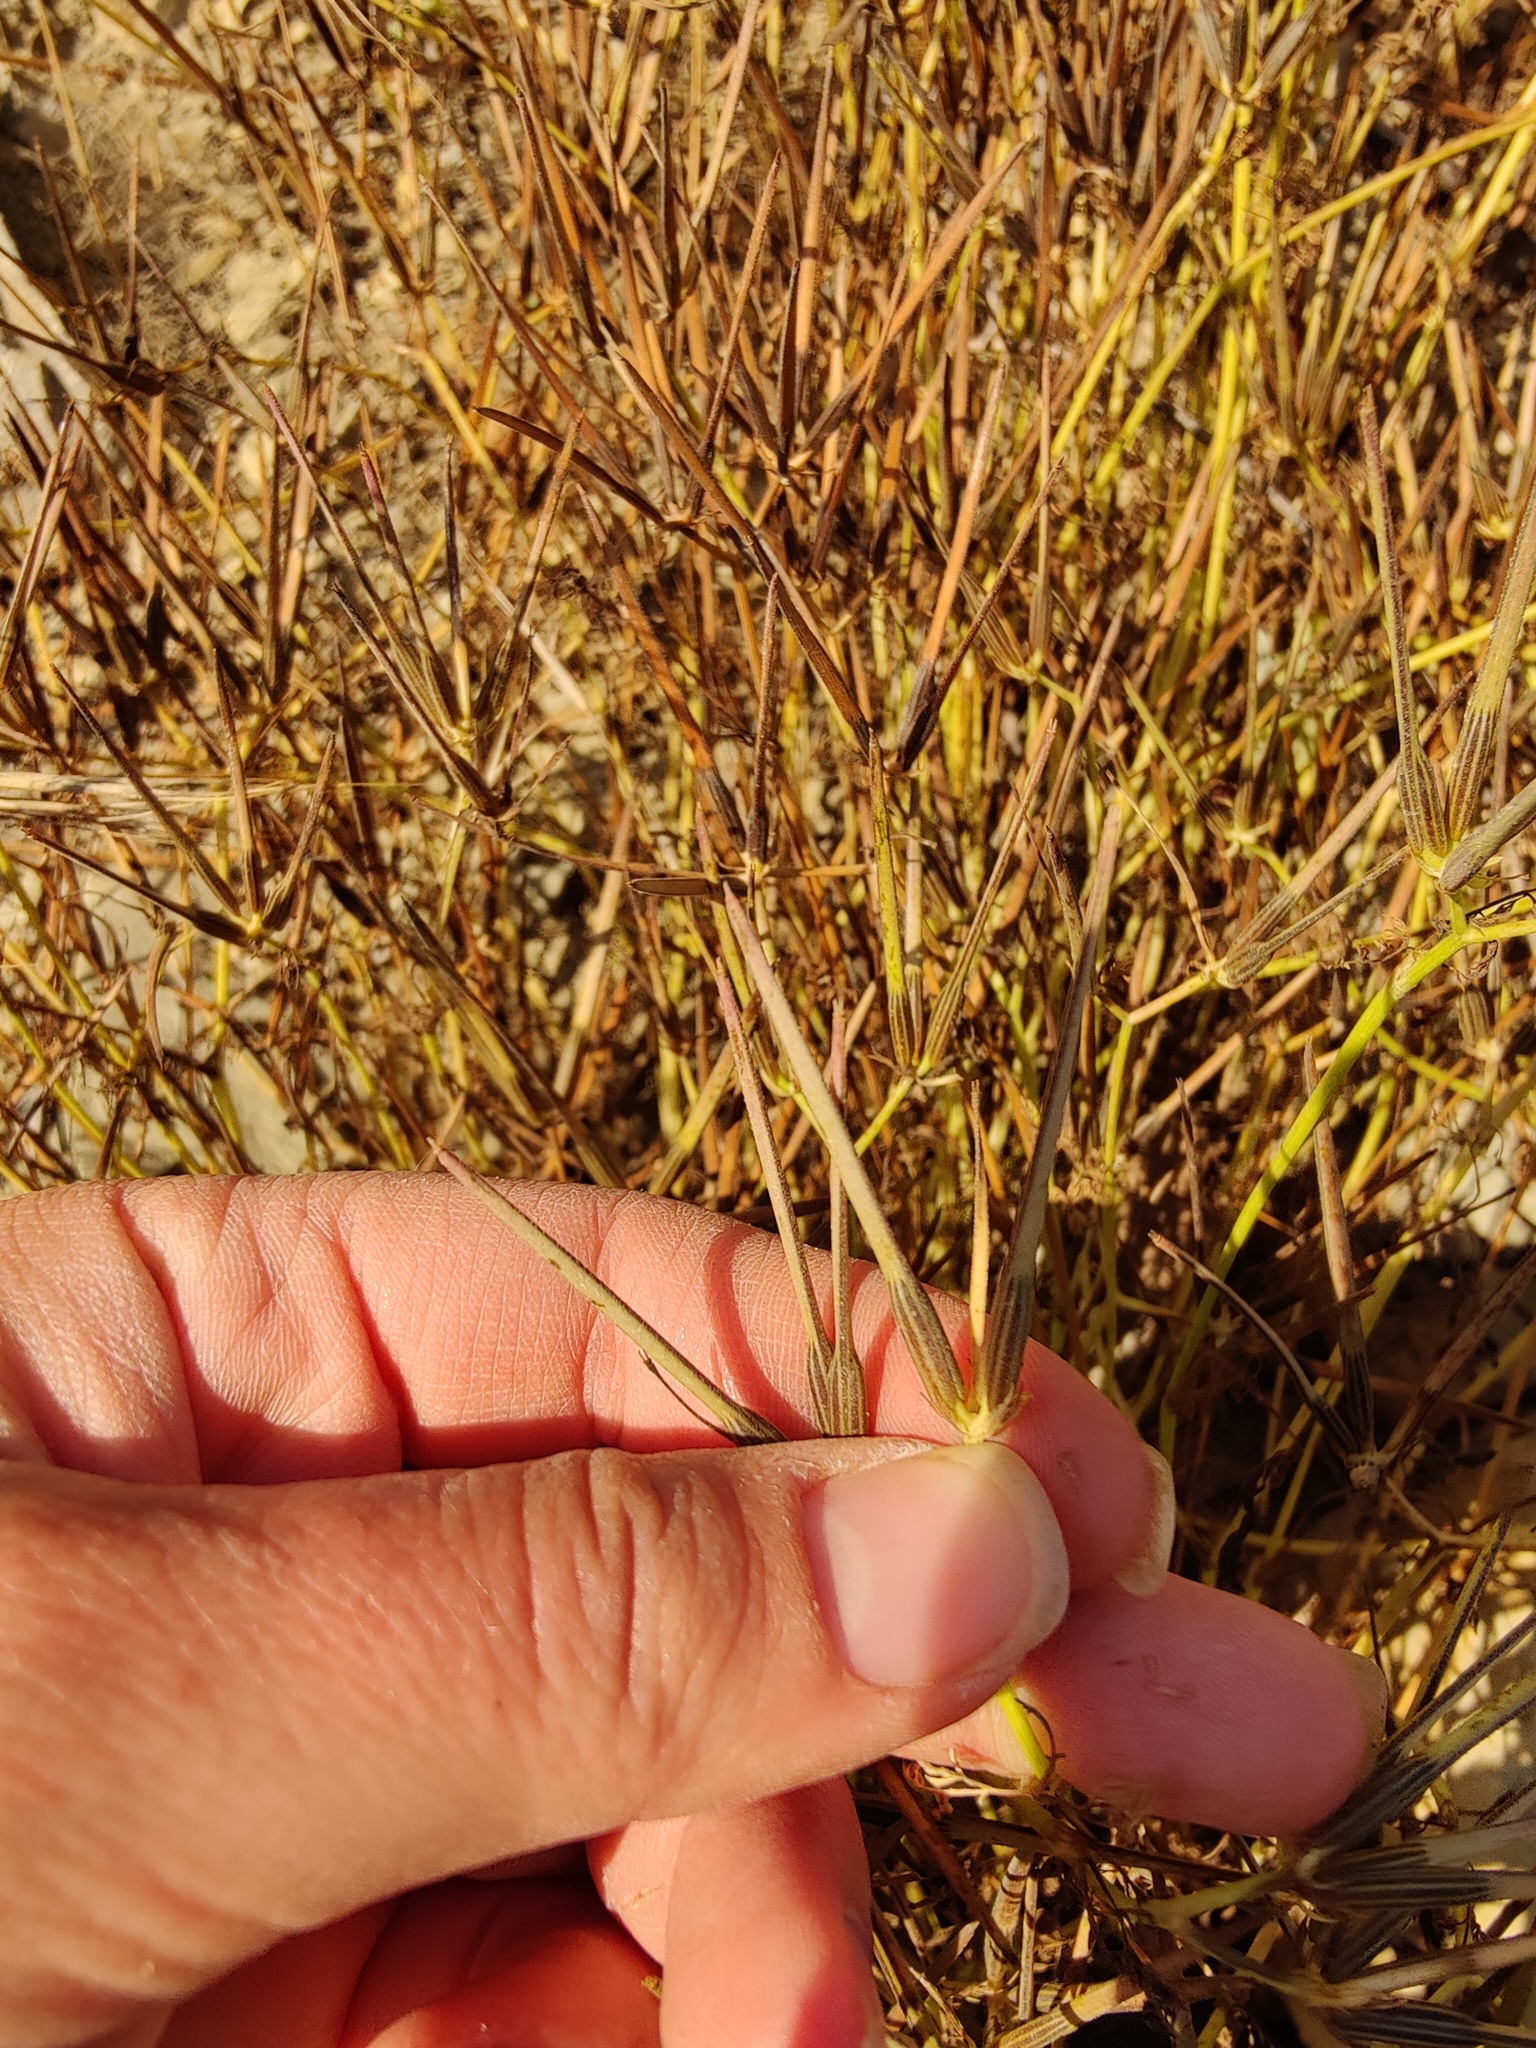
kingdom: Plantae
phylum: Tracheophyta
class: Magnoliopsida
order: Apiales
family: Apiaceae
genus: Scandix
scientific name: Scandix pecten-veneris
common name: Shepherd's-needle
